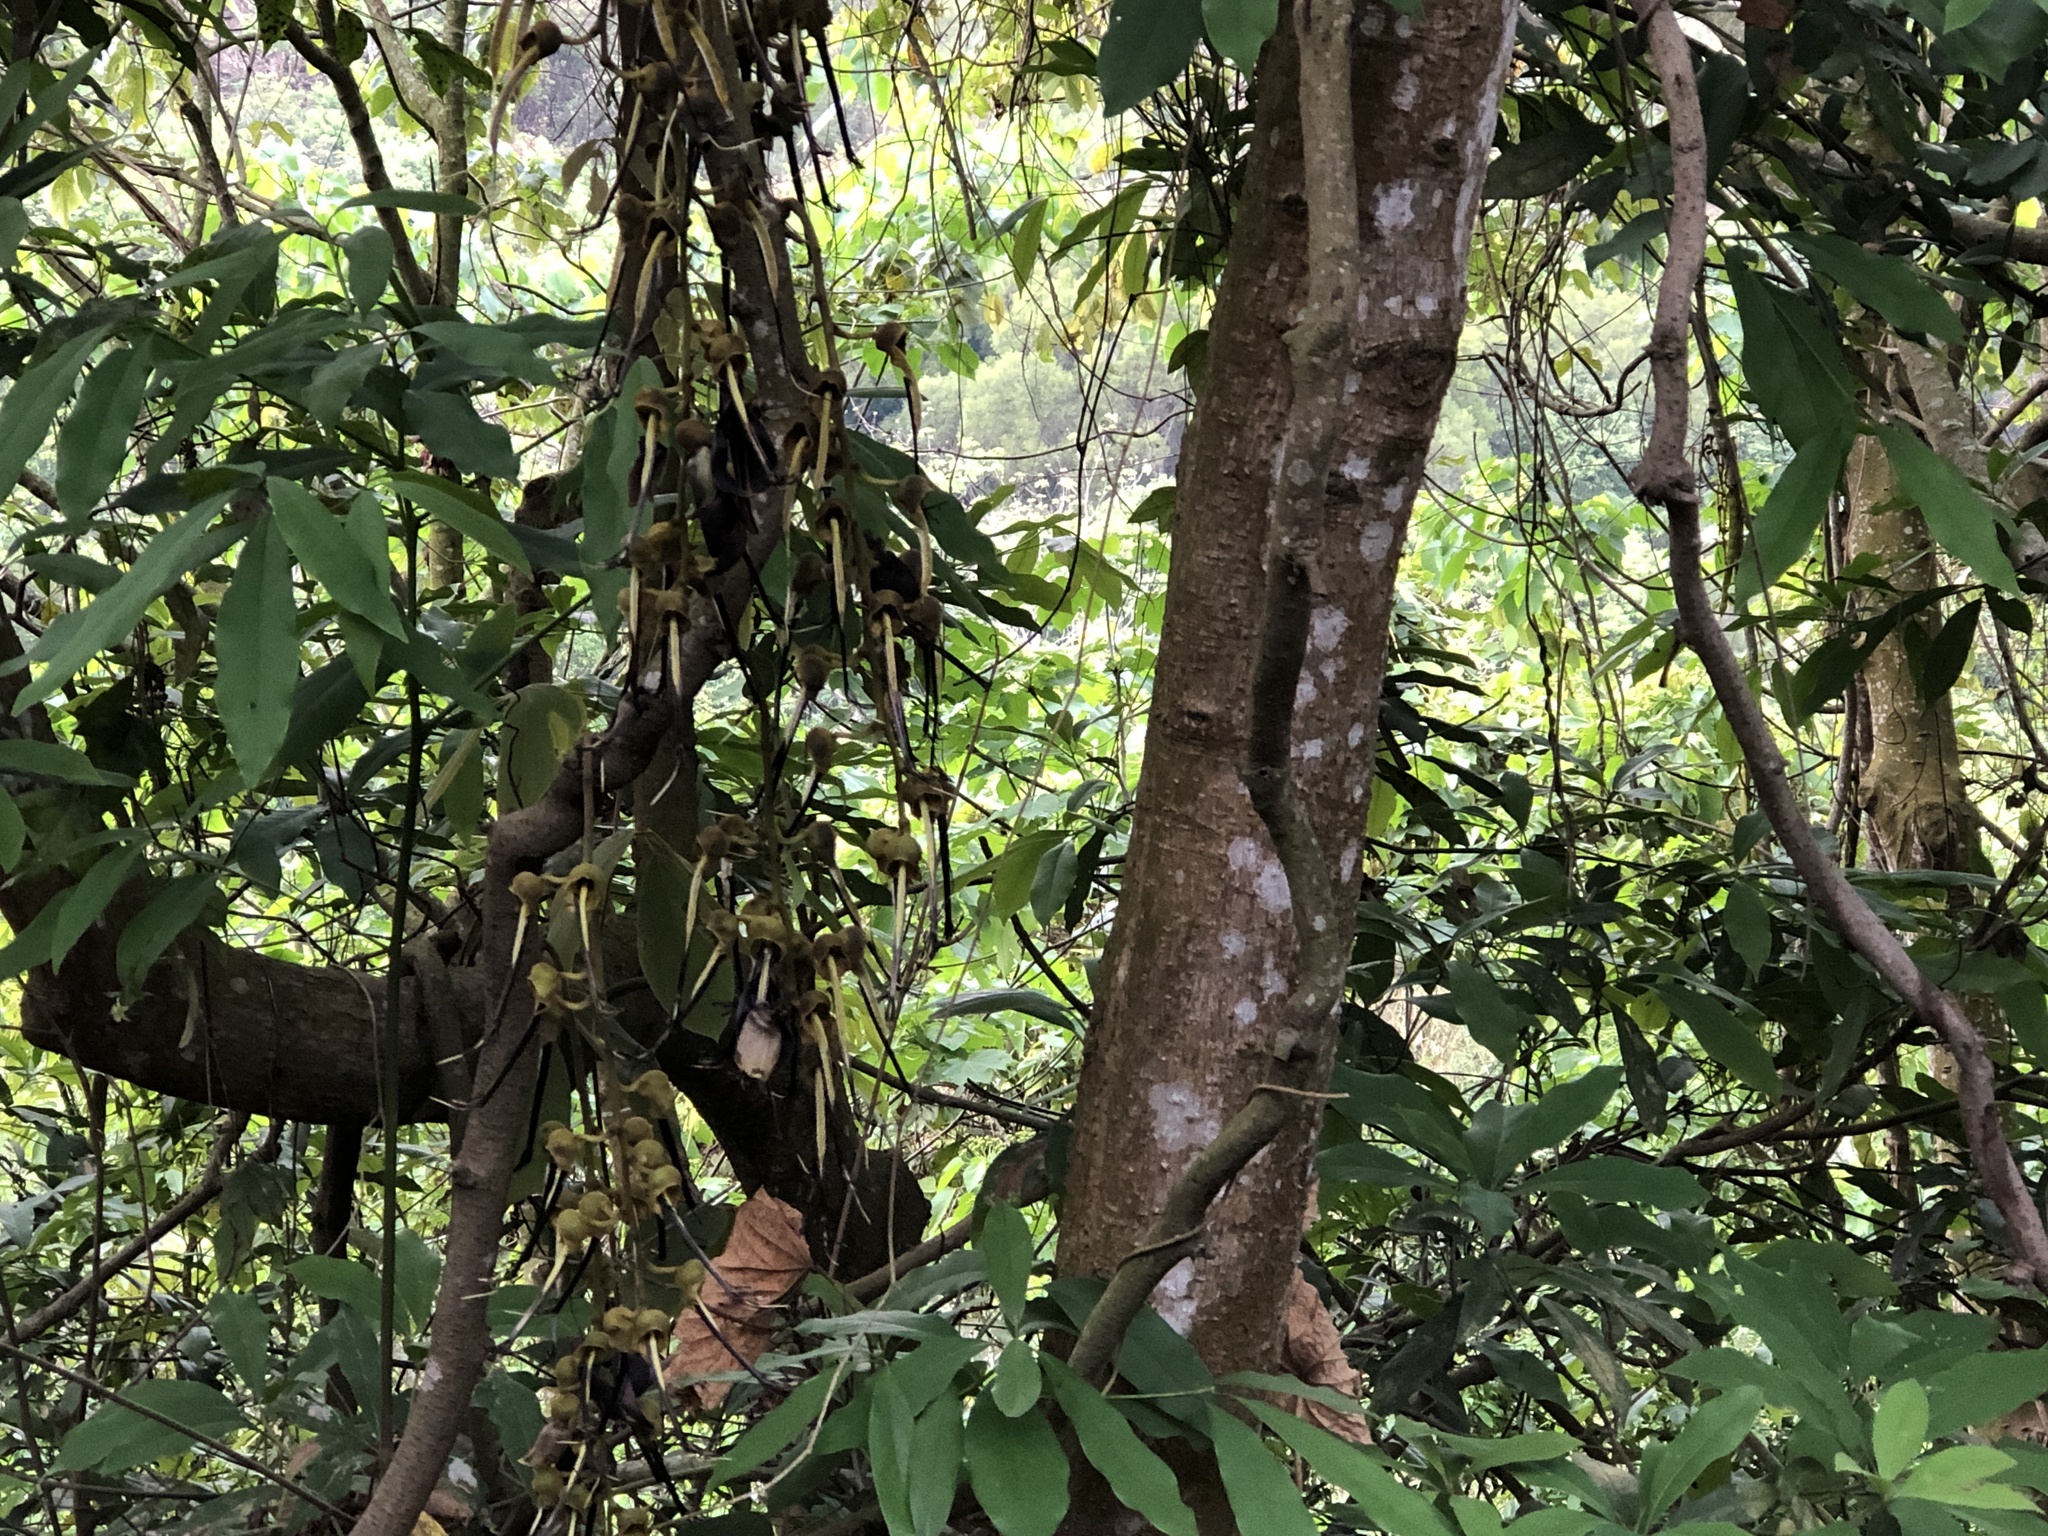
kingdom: Plantae
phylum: Tracheophyta
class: Magnoliopsida
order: Fabales
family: Fabaceae
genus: Mucuna
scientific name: Mucuna macrocarpa
